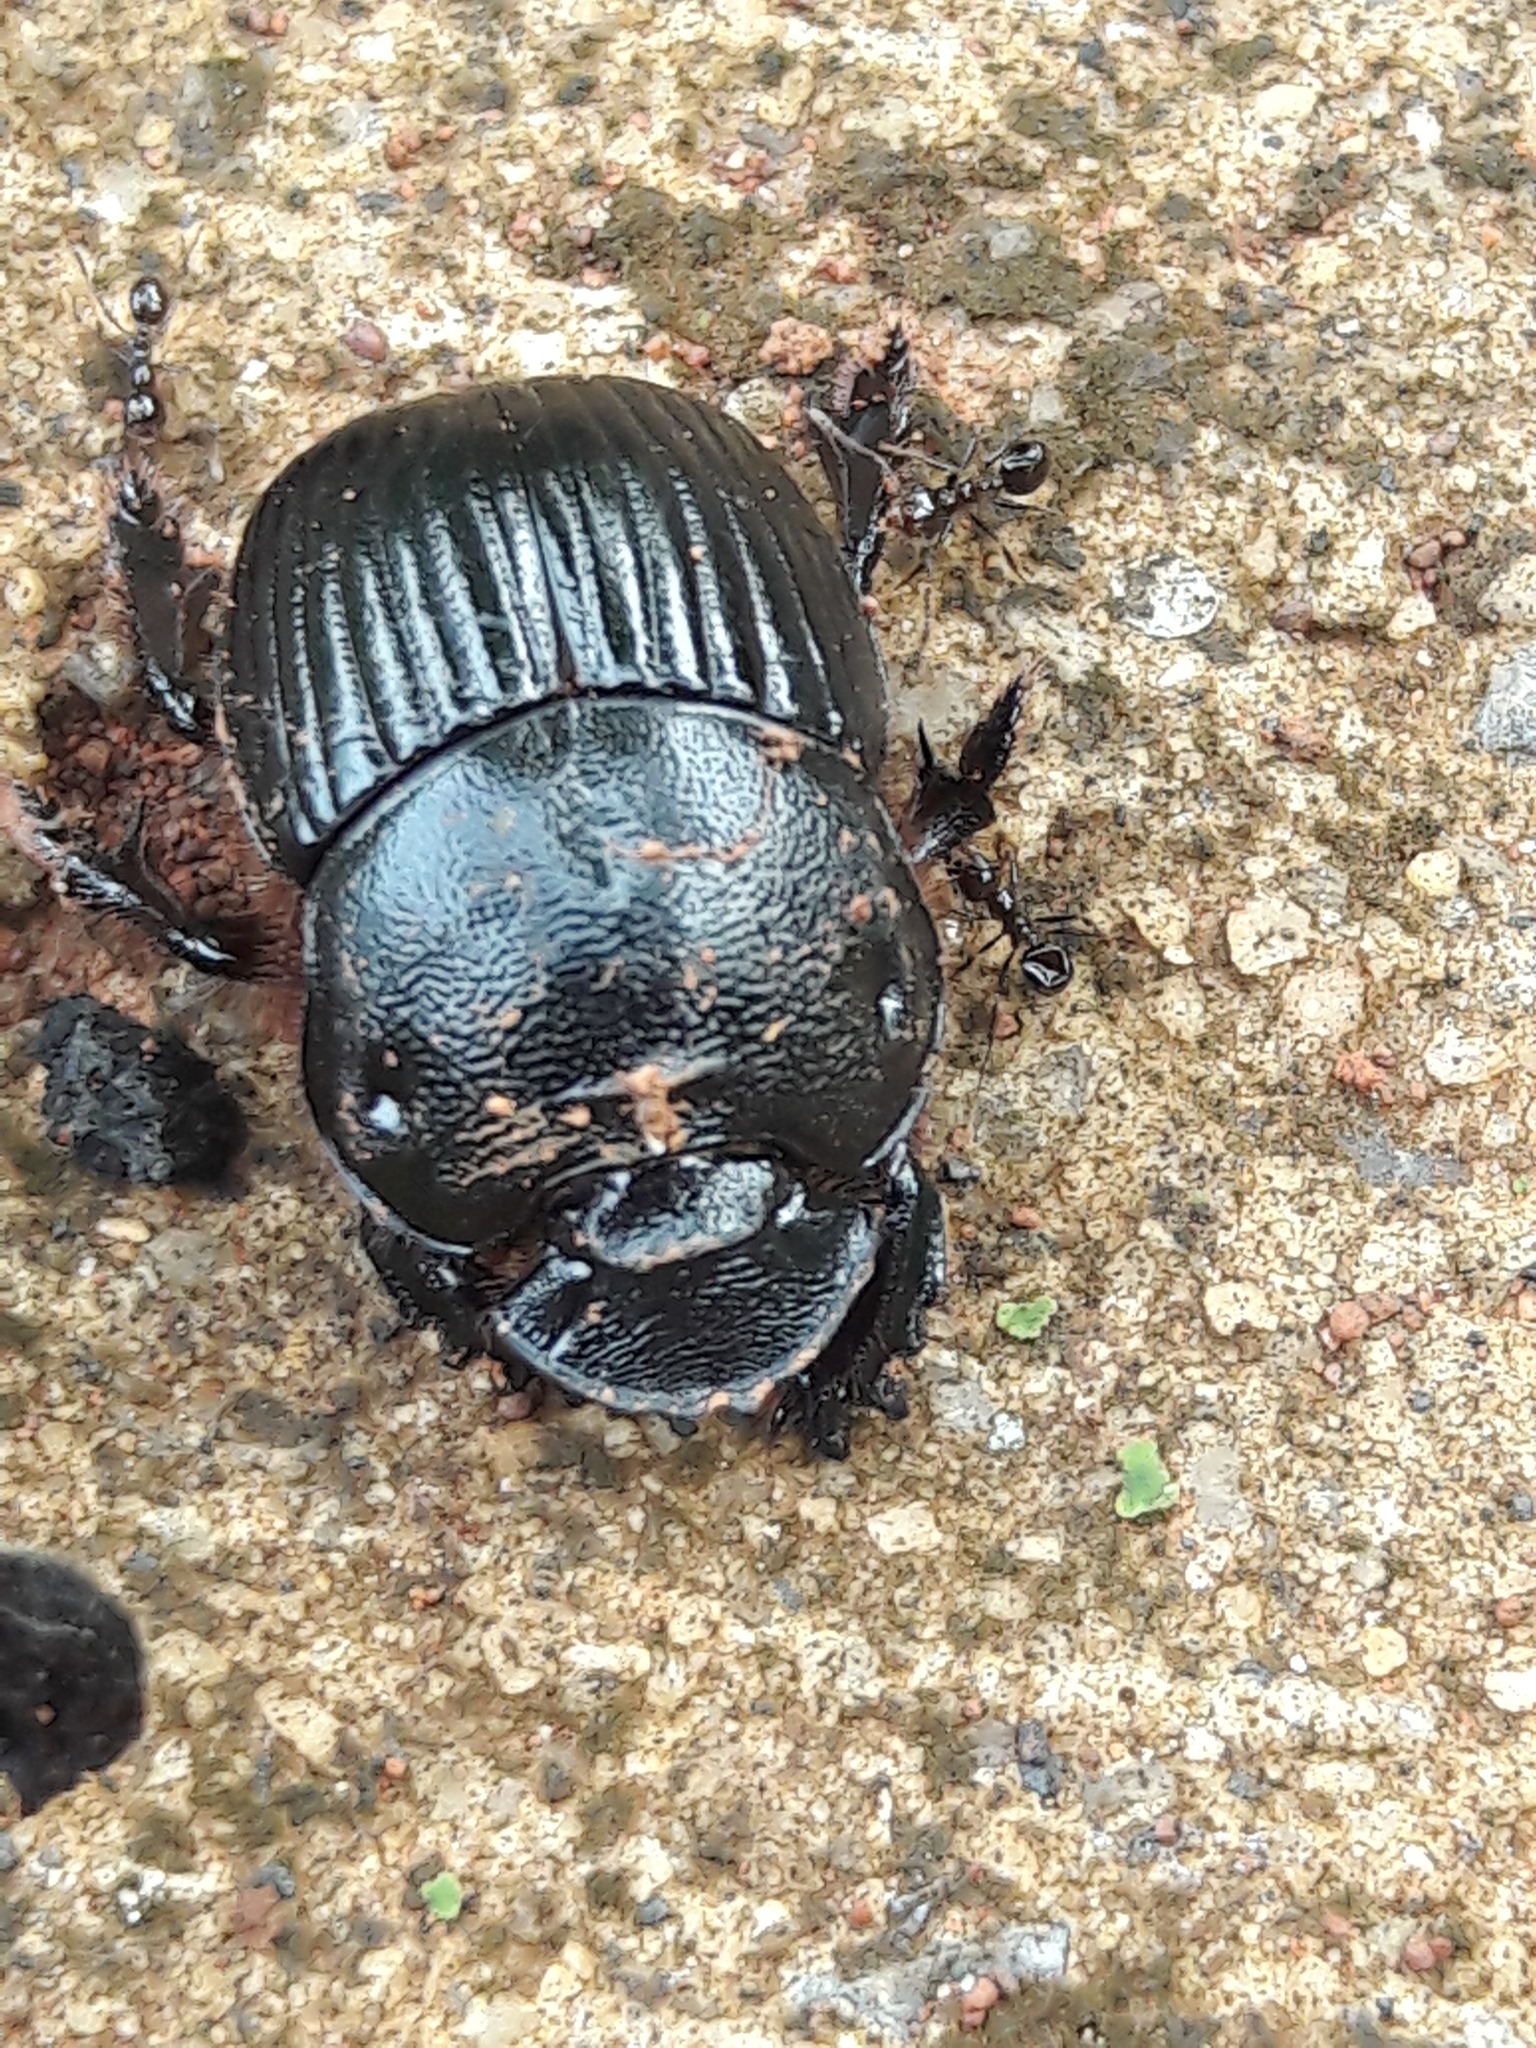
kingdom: Animalia
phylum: Arthropoda
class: Insecta
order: Coleoptera
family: Scarabaeidae
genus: Dendropaemon
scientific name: Dendropaemon convexus
